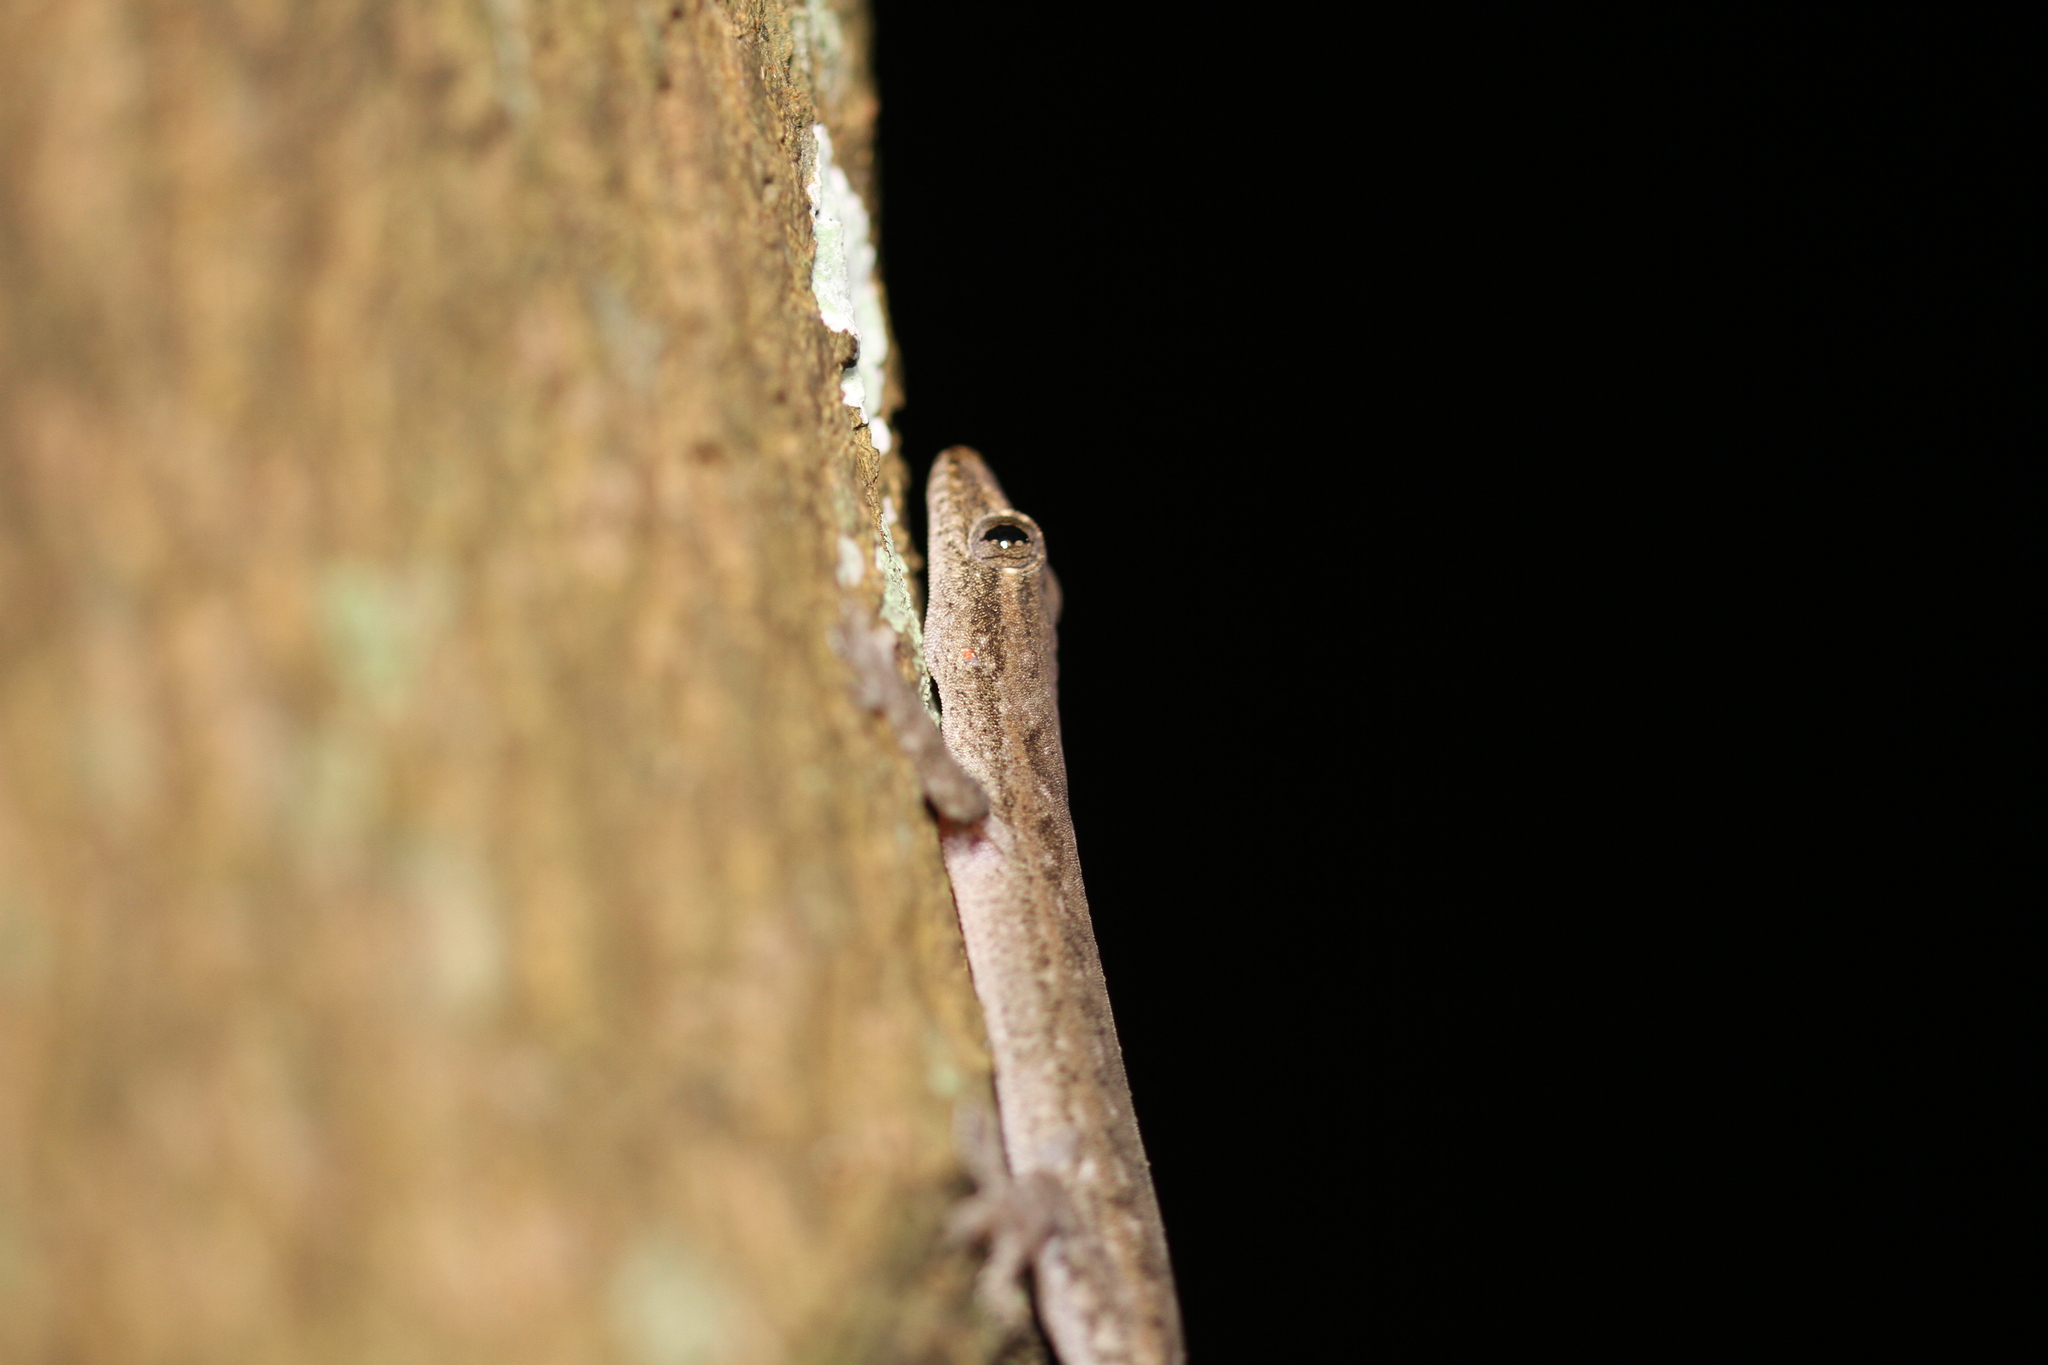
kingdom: Animalia
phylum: Chordata
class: Squamata
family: Gekkonidae
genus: Hemidactylus
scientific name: Hemidactylus frenatus
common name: Common house gecko
